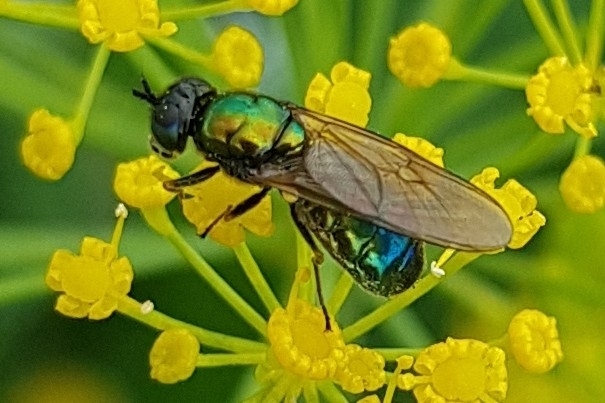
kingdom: Animalia
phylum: Arthropoda
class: Insecta
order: Diptera
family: Stratiomyidae
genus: Chloromyia
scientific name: Chloromyia formosa
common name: Soldier fly
